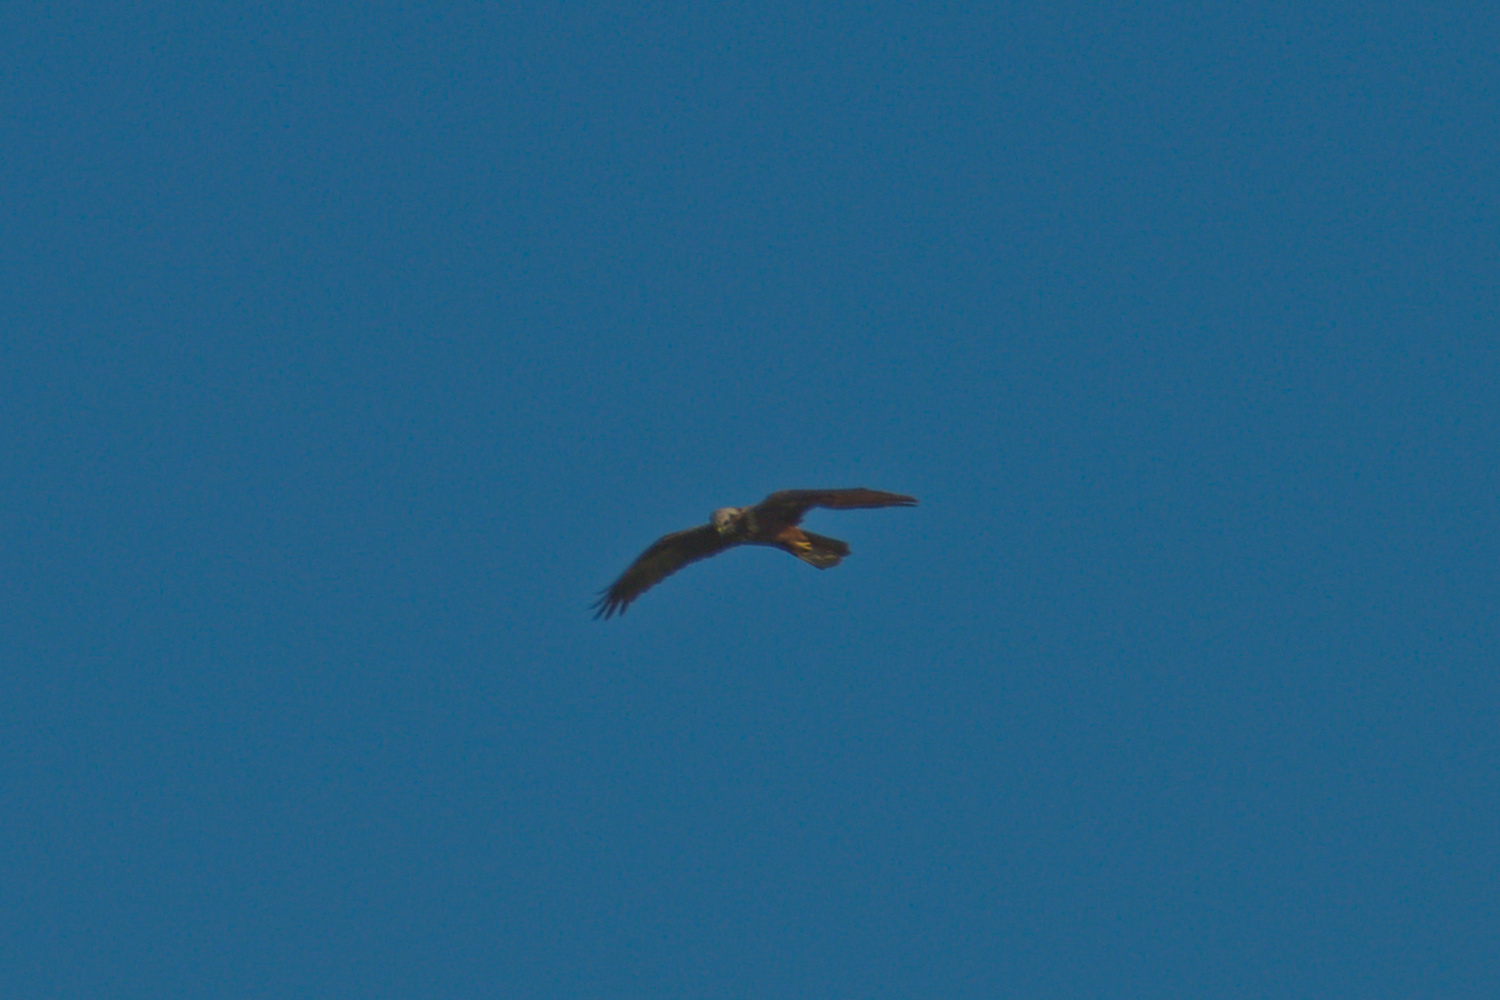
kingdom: Animalia
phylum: Chordata
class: Aves
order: Accipitriformes
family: Accipitridae
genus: Circus
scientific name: Circus aeruginosus
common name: Western marsh harrier
